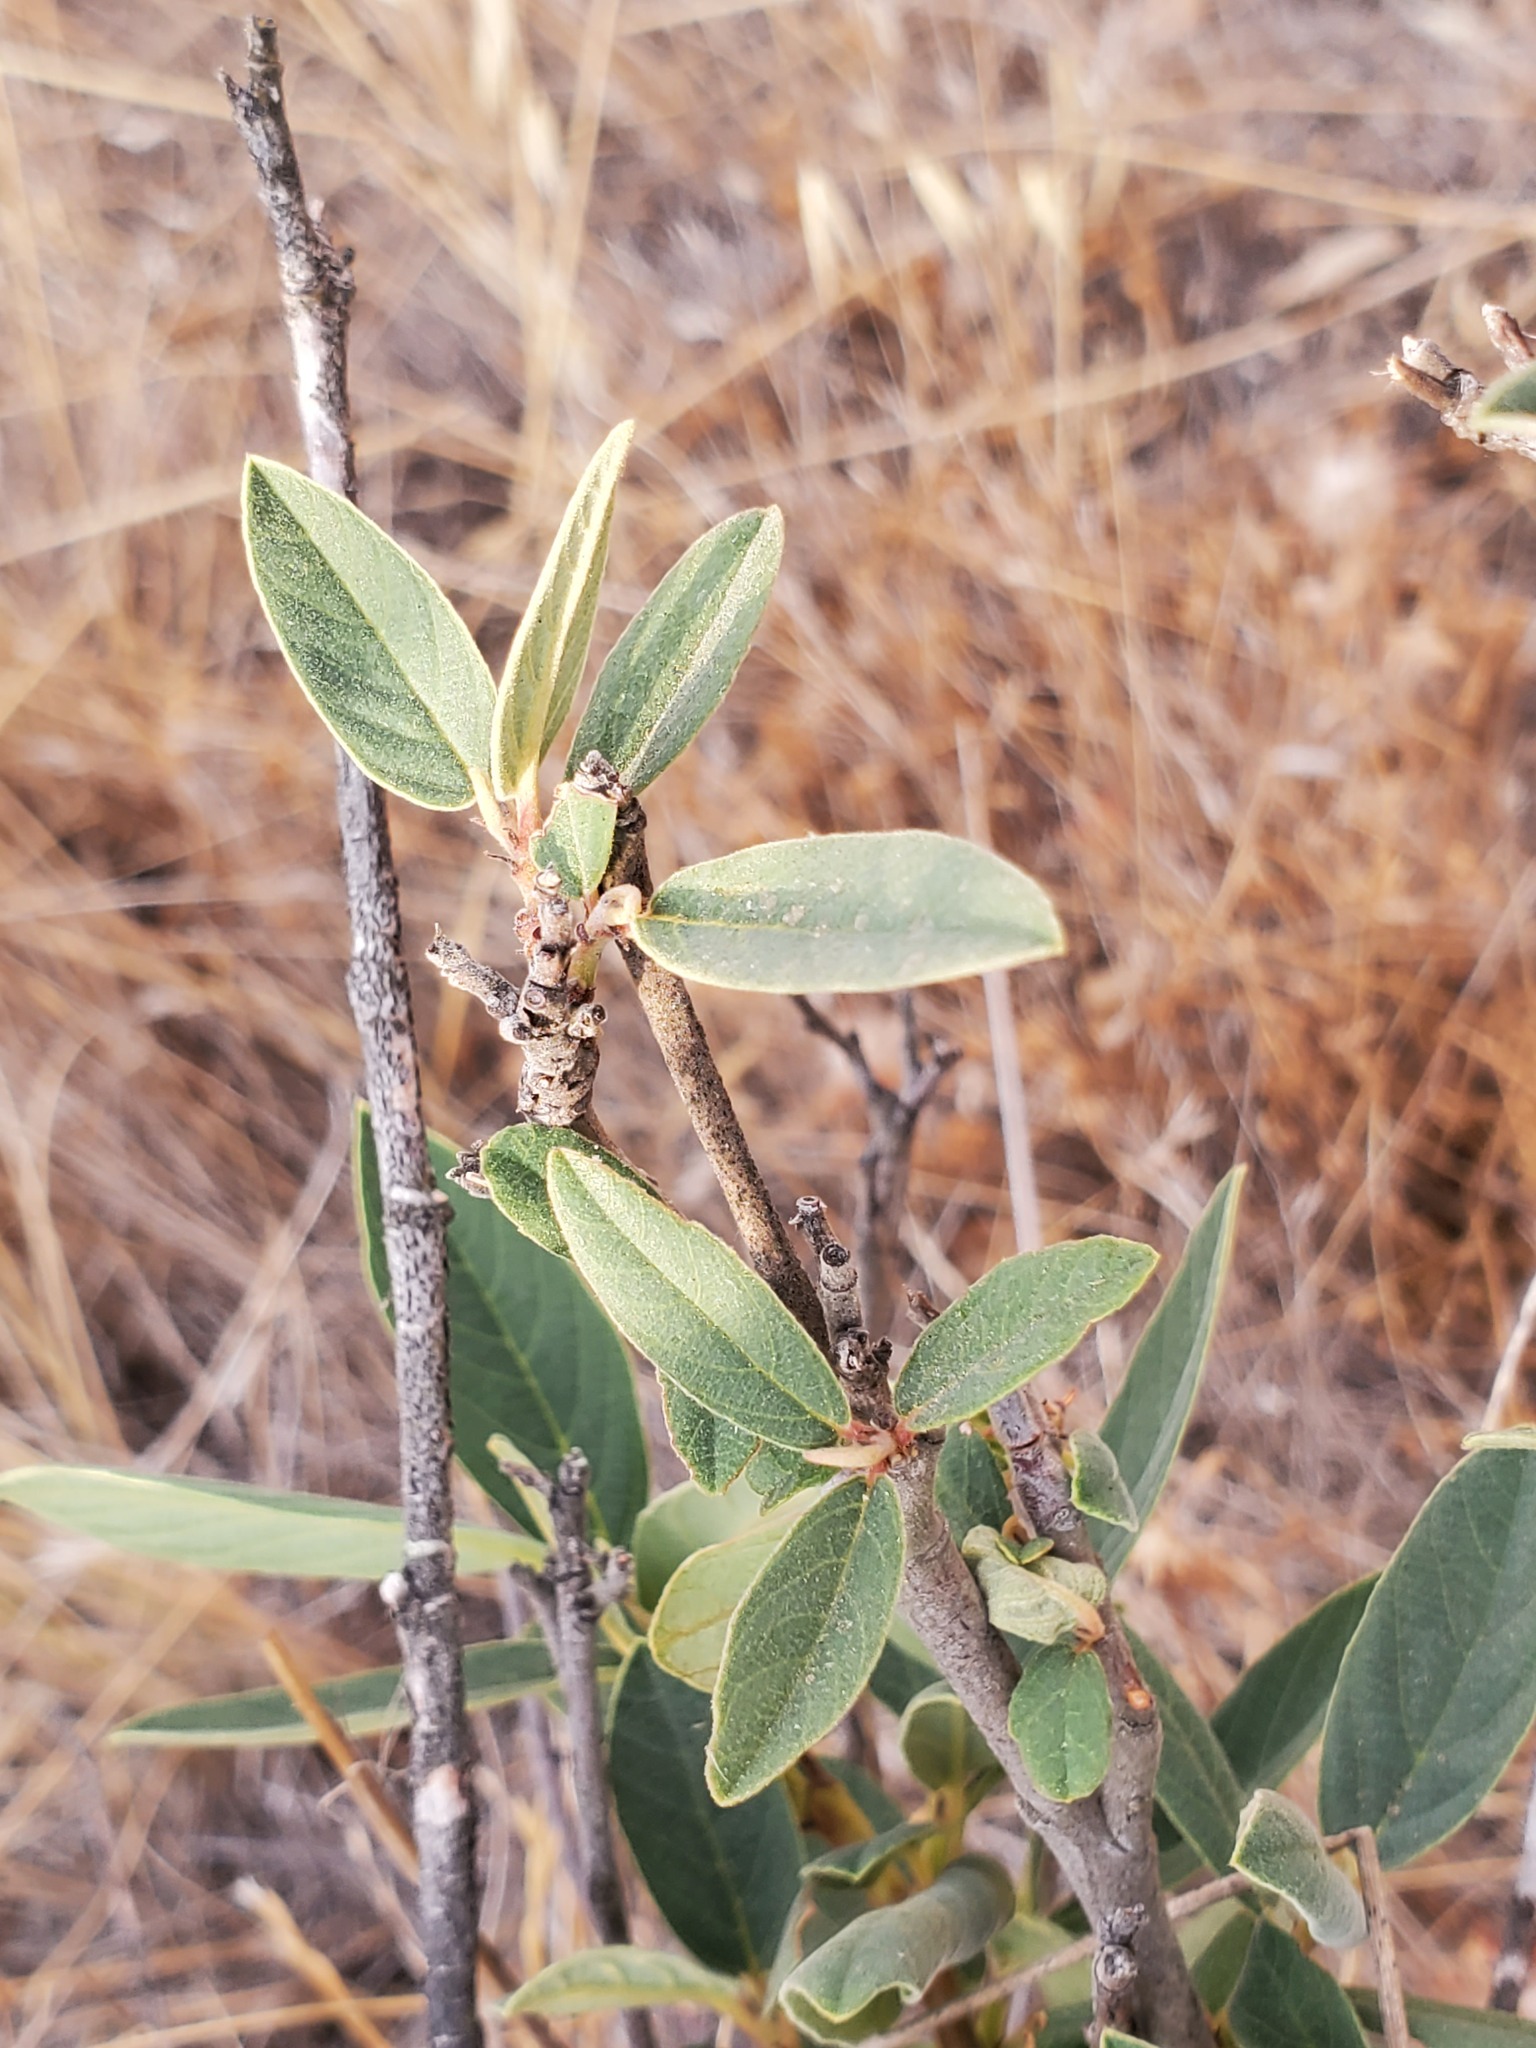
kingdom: Plantae
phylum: Tracheophyta
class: Magnoliopsida
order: Rosales
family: Rhamnaceae
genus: Frangula
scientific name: Frangula californica
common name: California buckthorn
